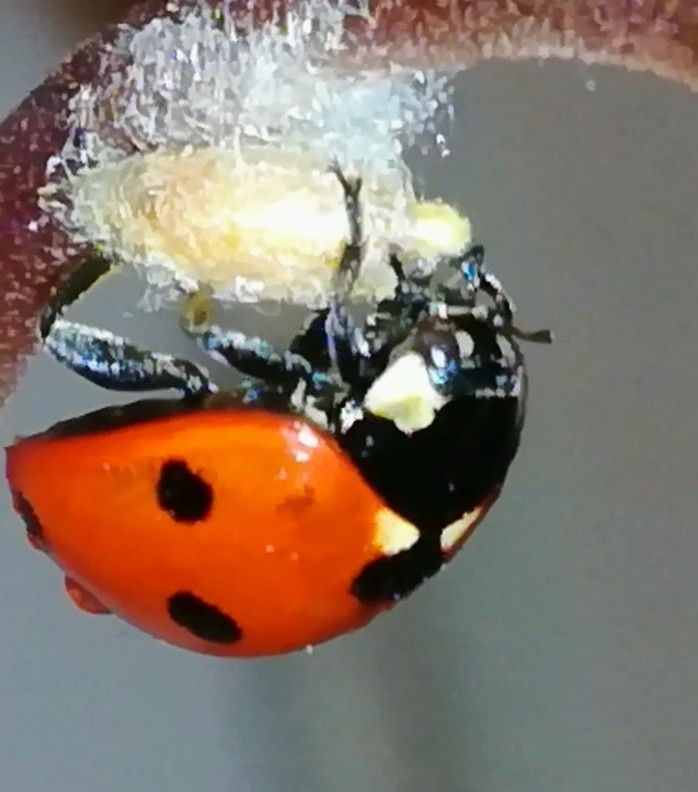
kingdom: Viruses
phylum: Pisuviricota
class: Pisoniviricetes
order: Picornavirales
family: Iflaviridae
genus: Iflavirus
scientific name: Iflavirus dinococcinellae
